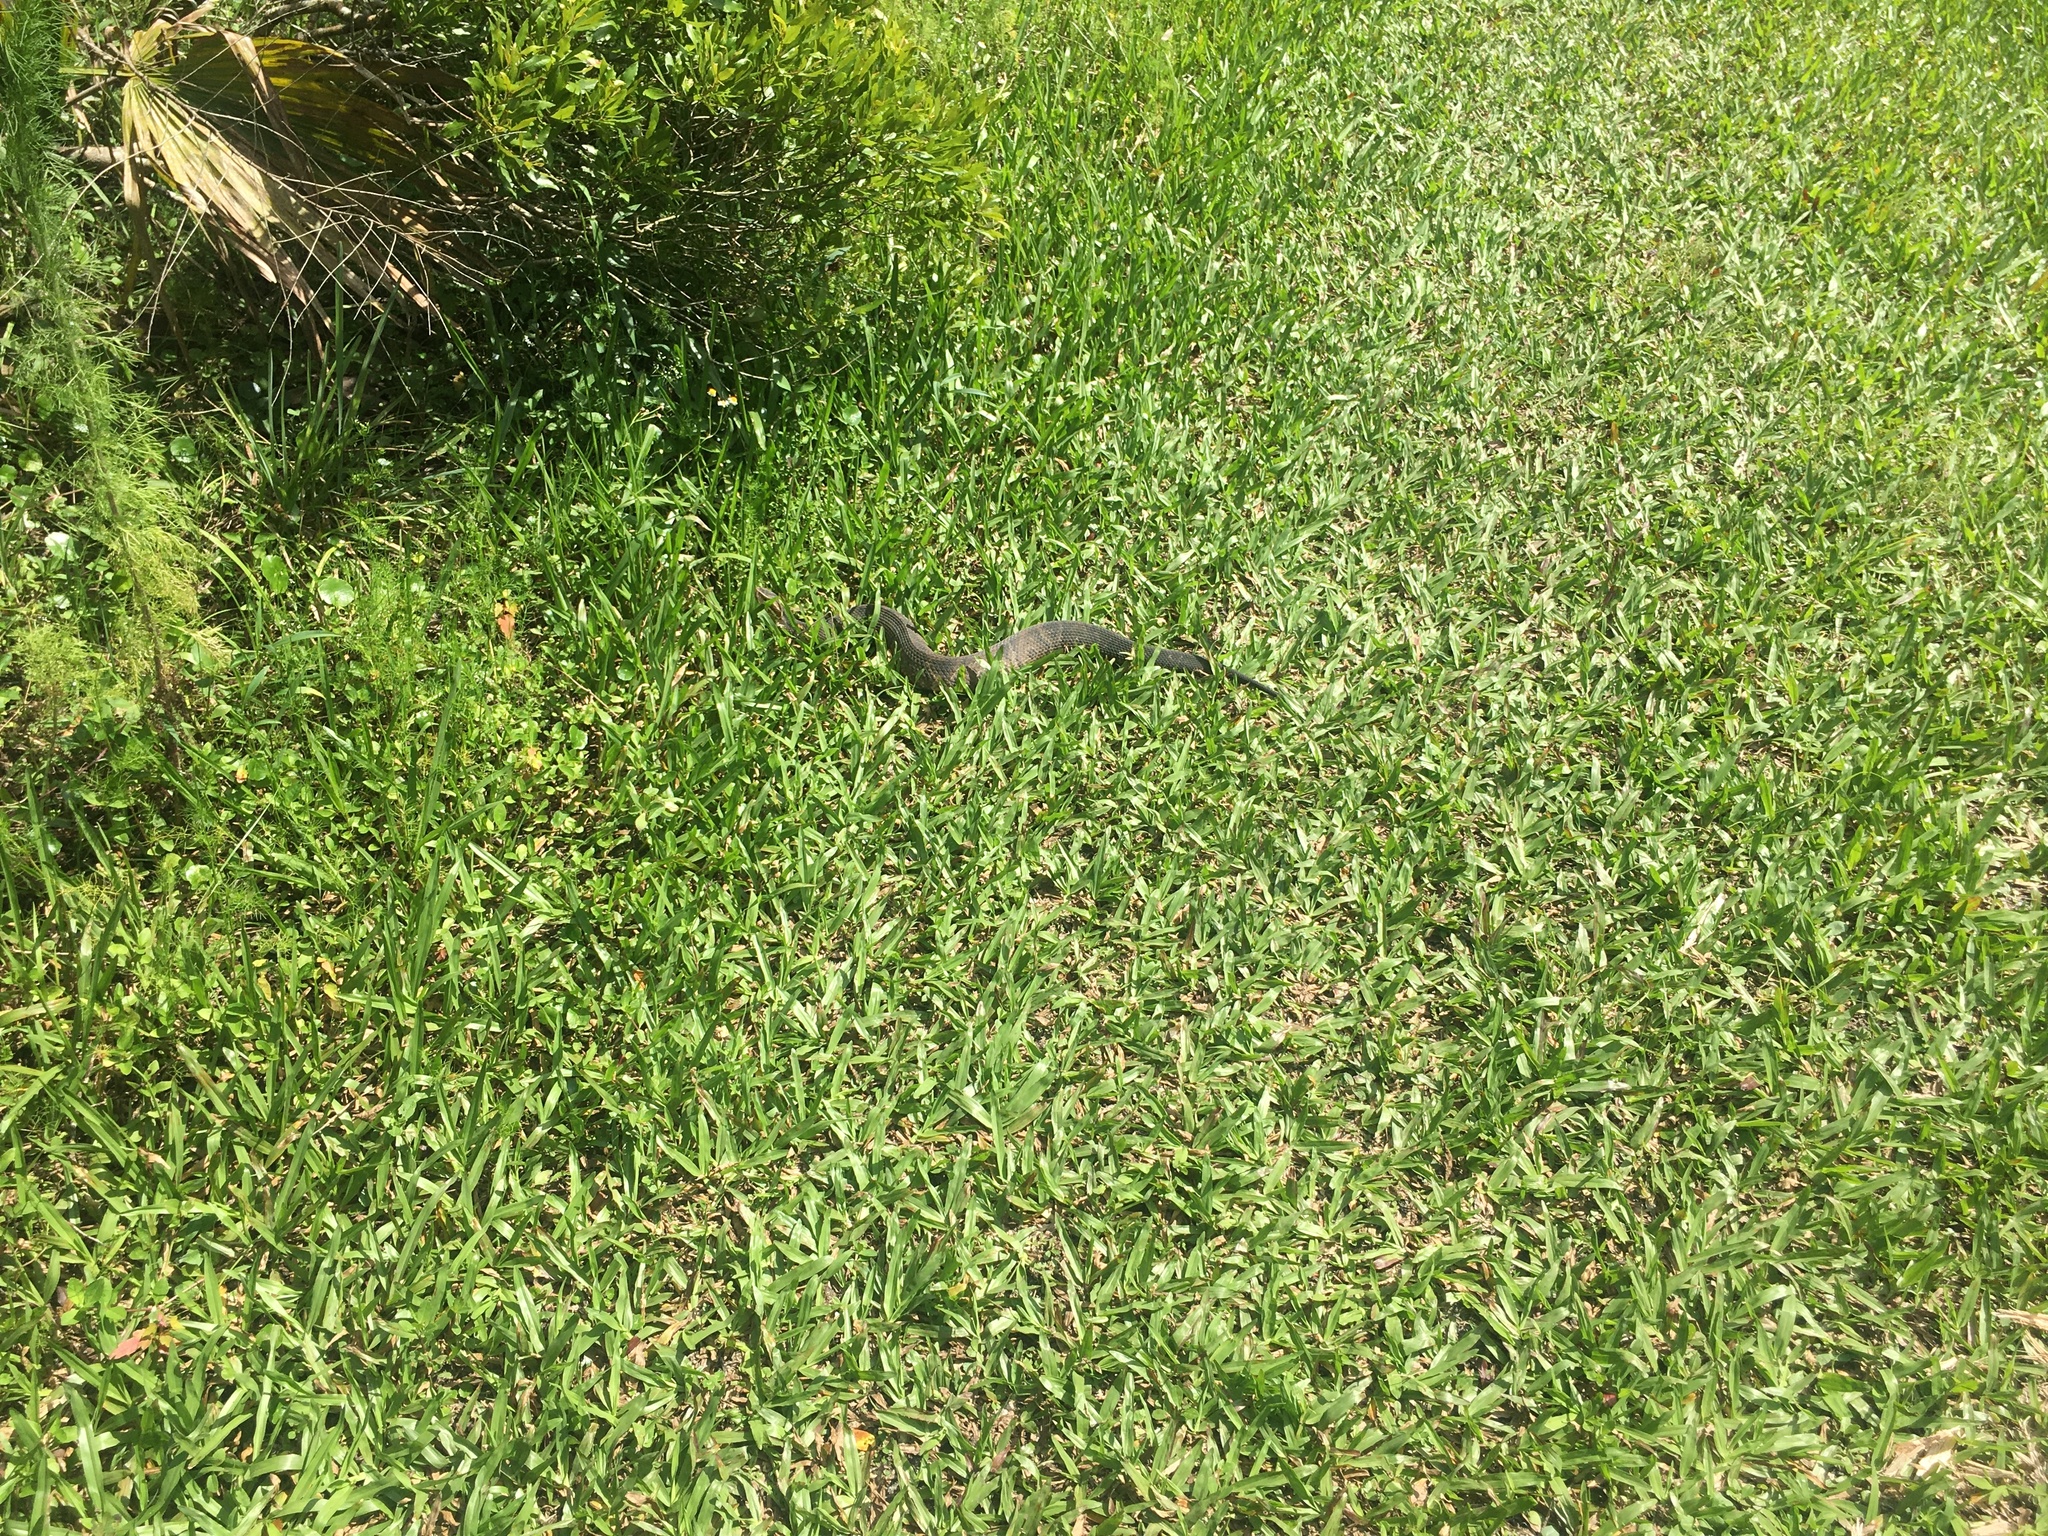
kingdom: Animalia
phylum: Chordata
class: Squamata
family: Viperidae
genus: Agkistrodon
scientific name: Agkistrodon conanti
